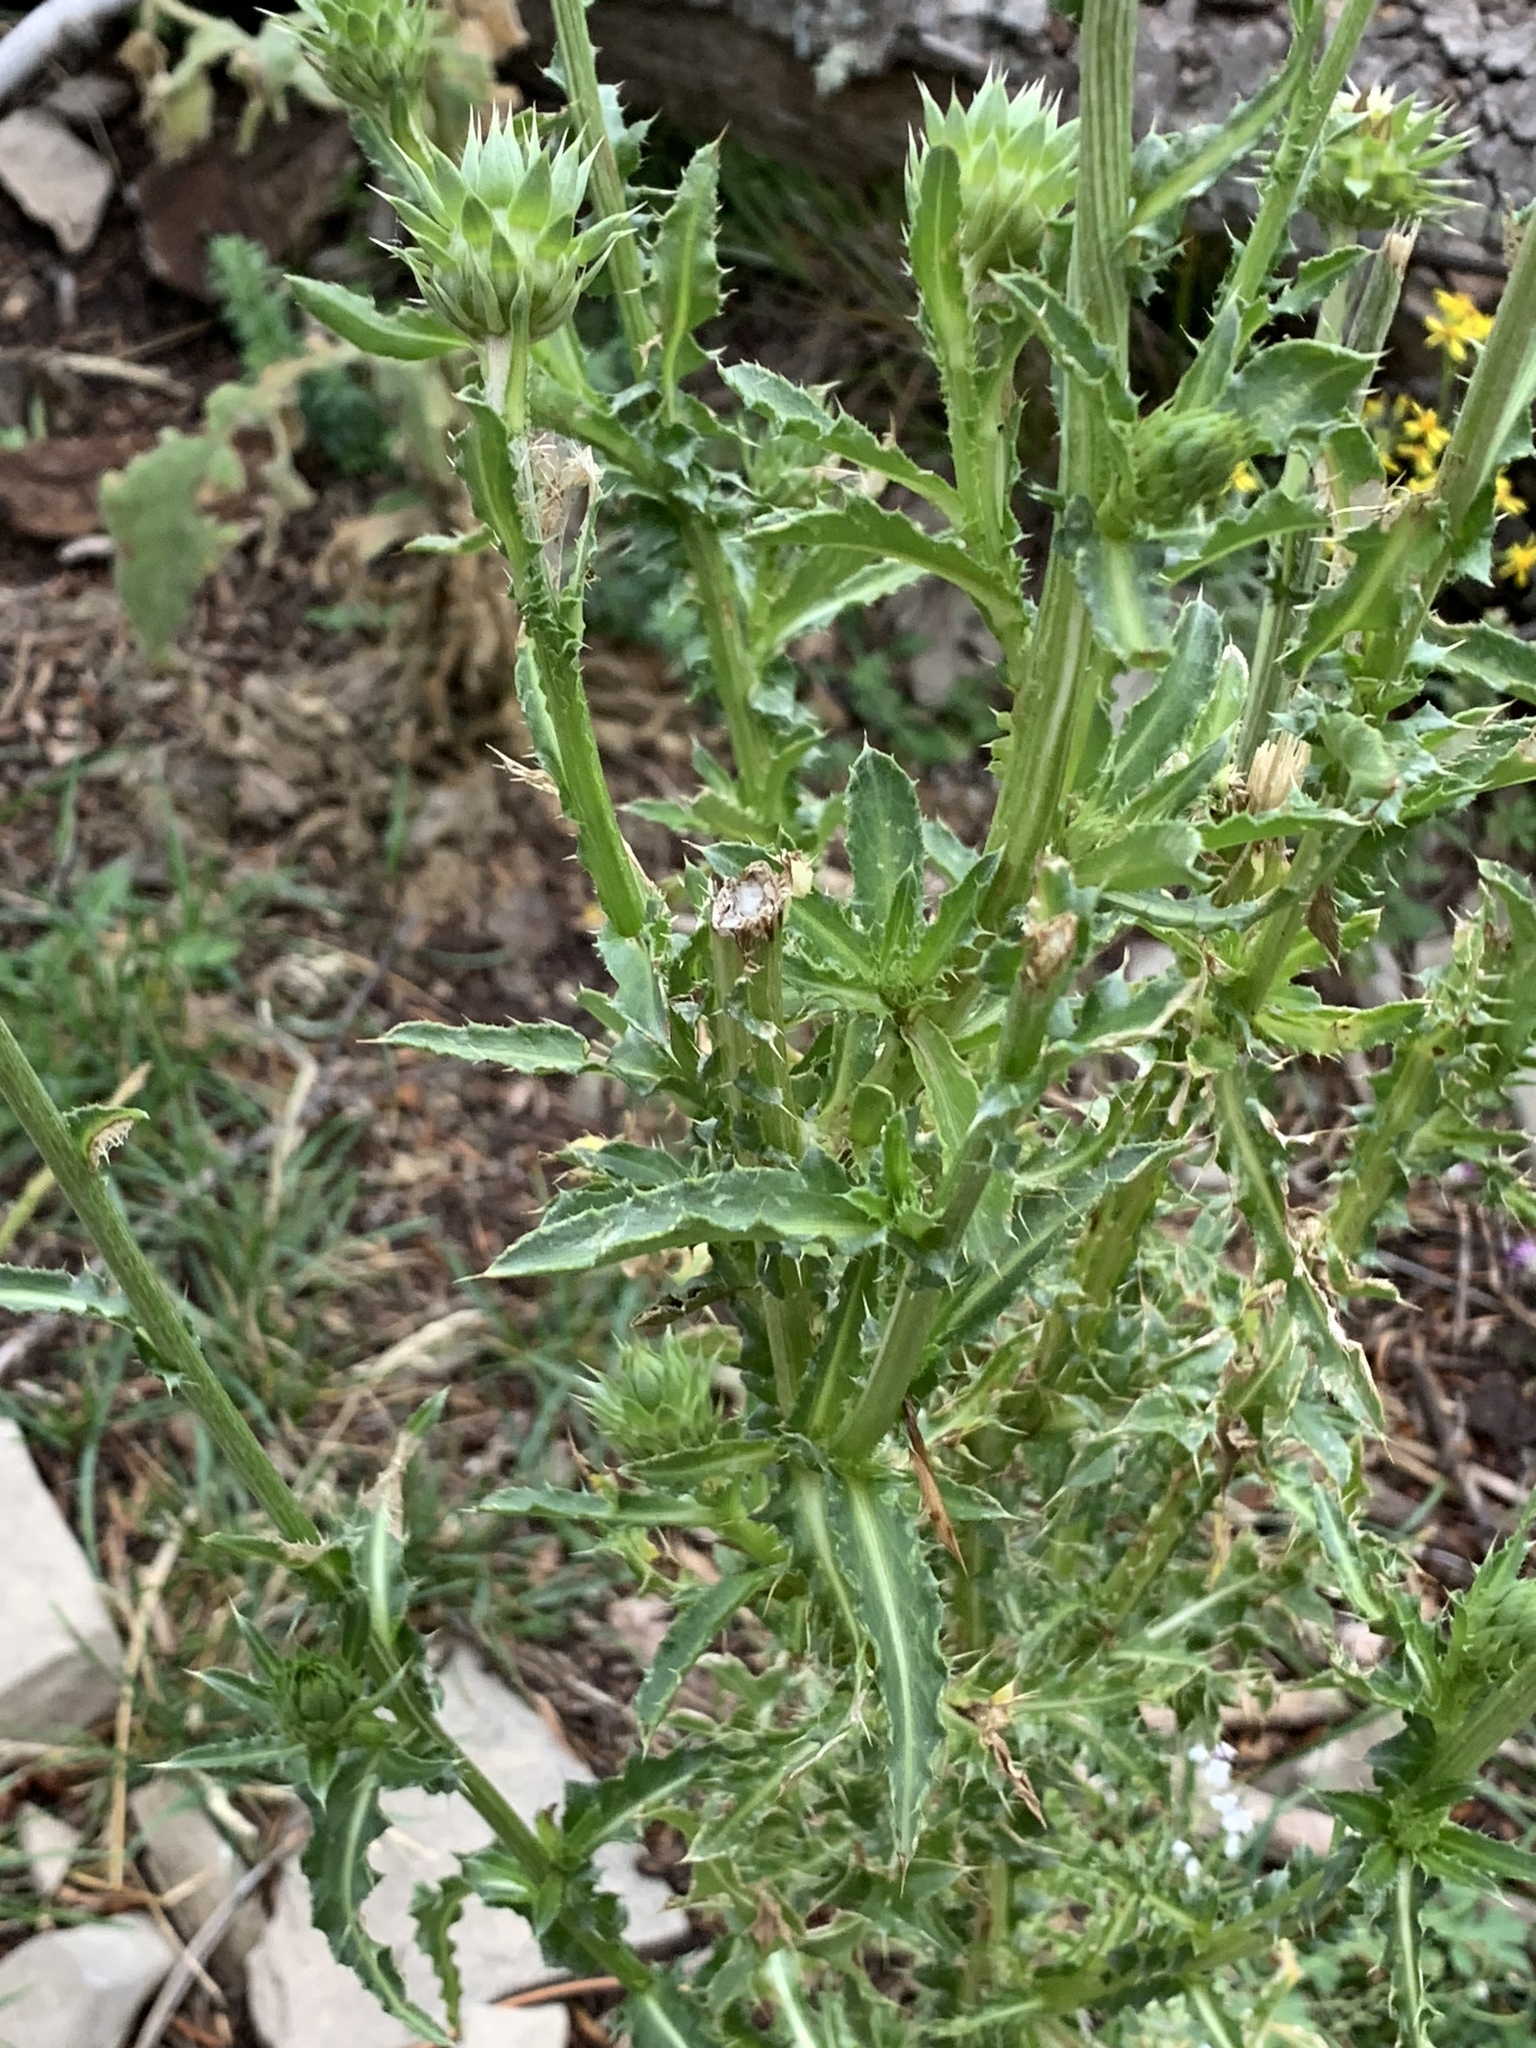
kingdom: Plantae
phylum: Tracheophyta
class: Magnoliopsida
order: Asterales
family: Asteraceae
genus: Carduus
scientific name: Carduus nutans
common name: Musk thistle
